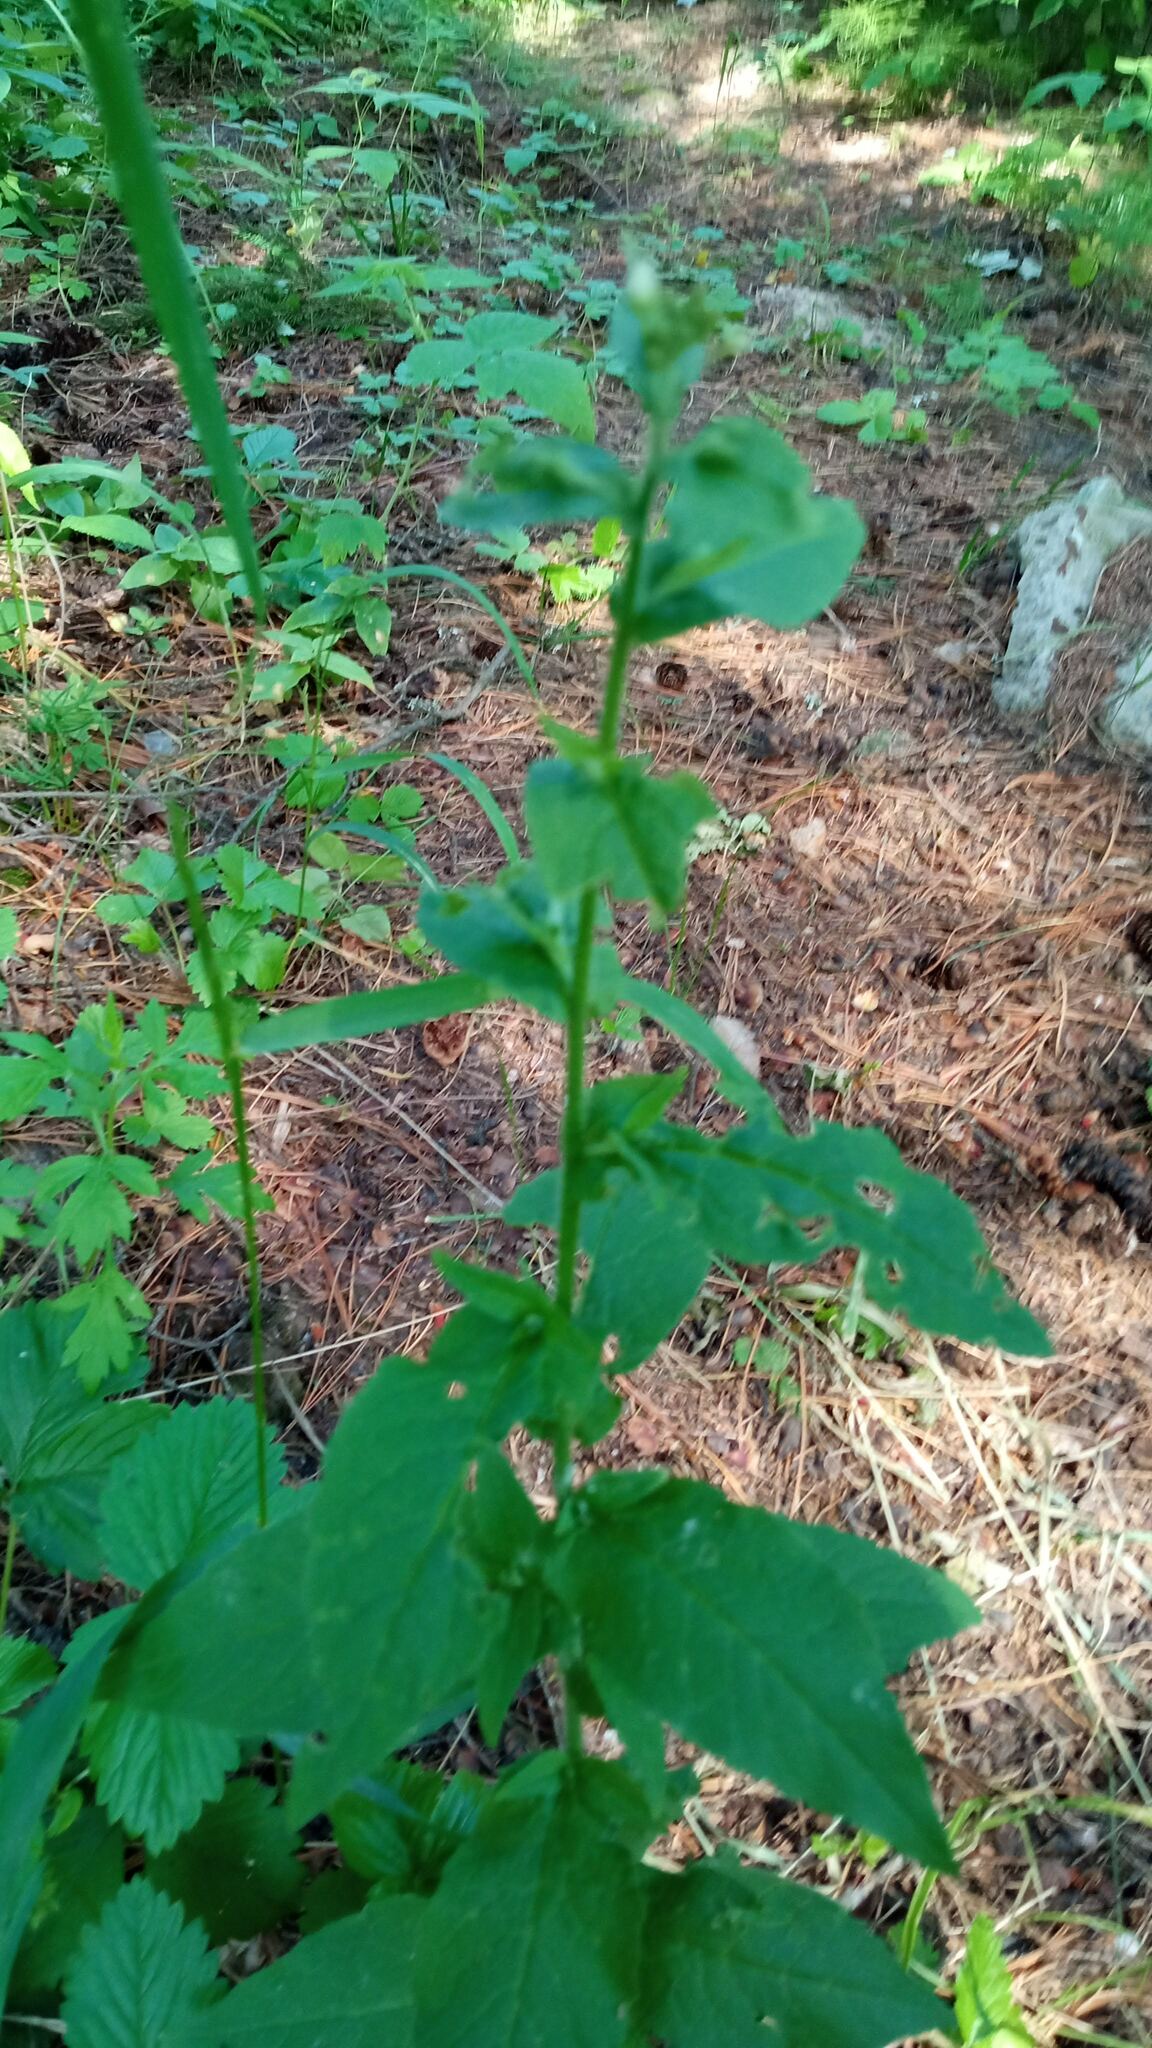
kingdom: Plantae
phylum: Tracheophyta
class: Magnoliopsida
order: Brassicales
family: Brassicaceae
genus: Catolobus
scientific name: Catolobus pendulus
